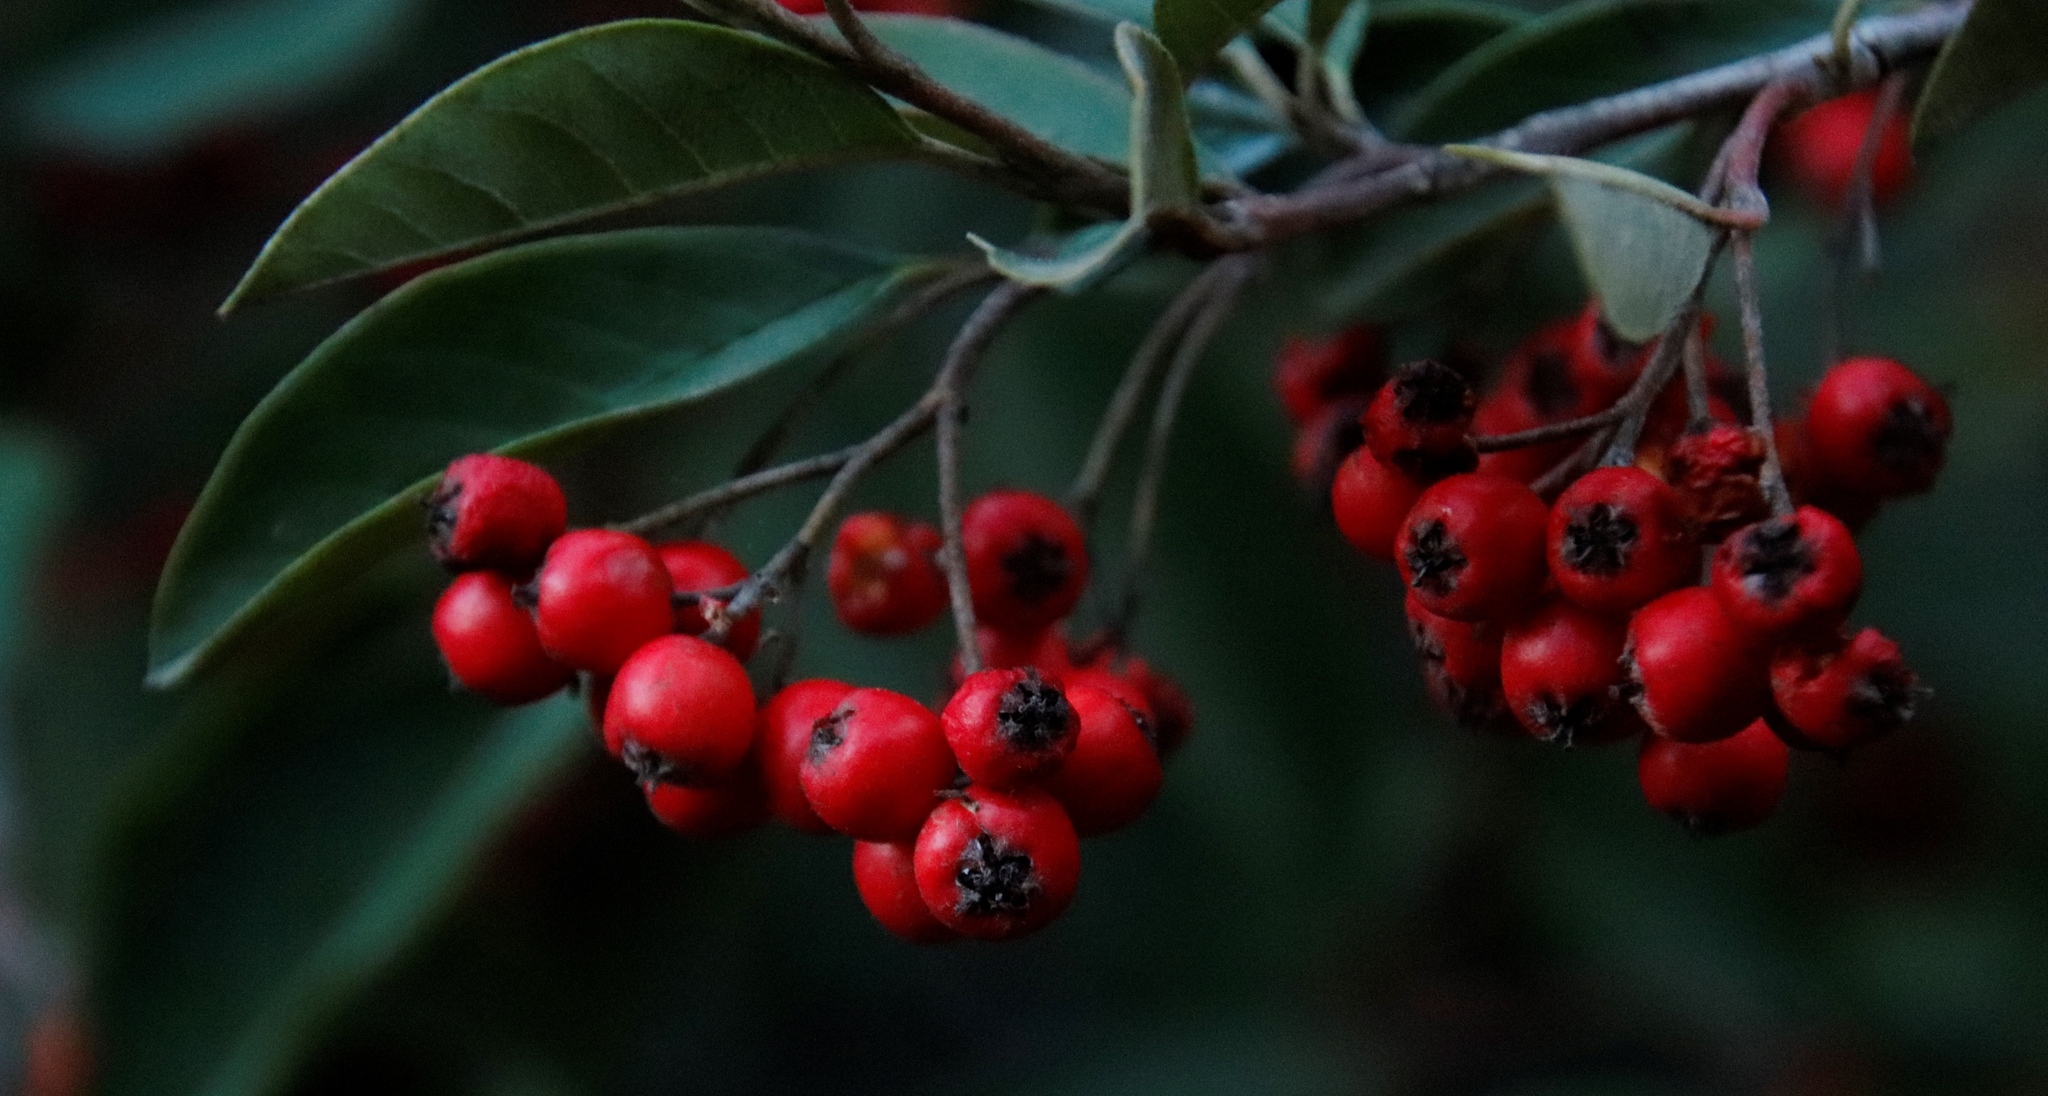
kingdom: Plantae
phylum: Tracheophyta
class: Magnoliopsida
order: Rosales
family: Rosaceae
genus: Cotoneaster
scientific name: Cotoneaster glaucophyllus
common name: Glaucous cotoneaster
